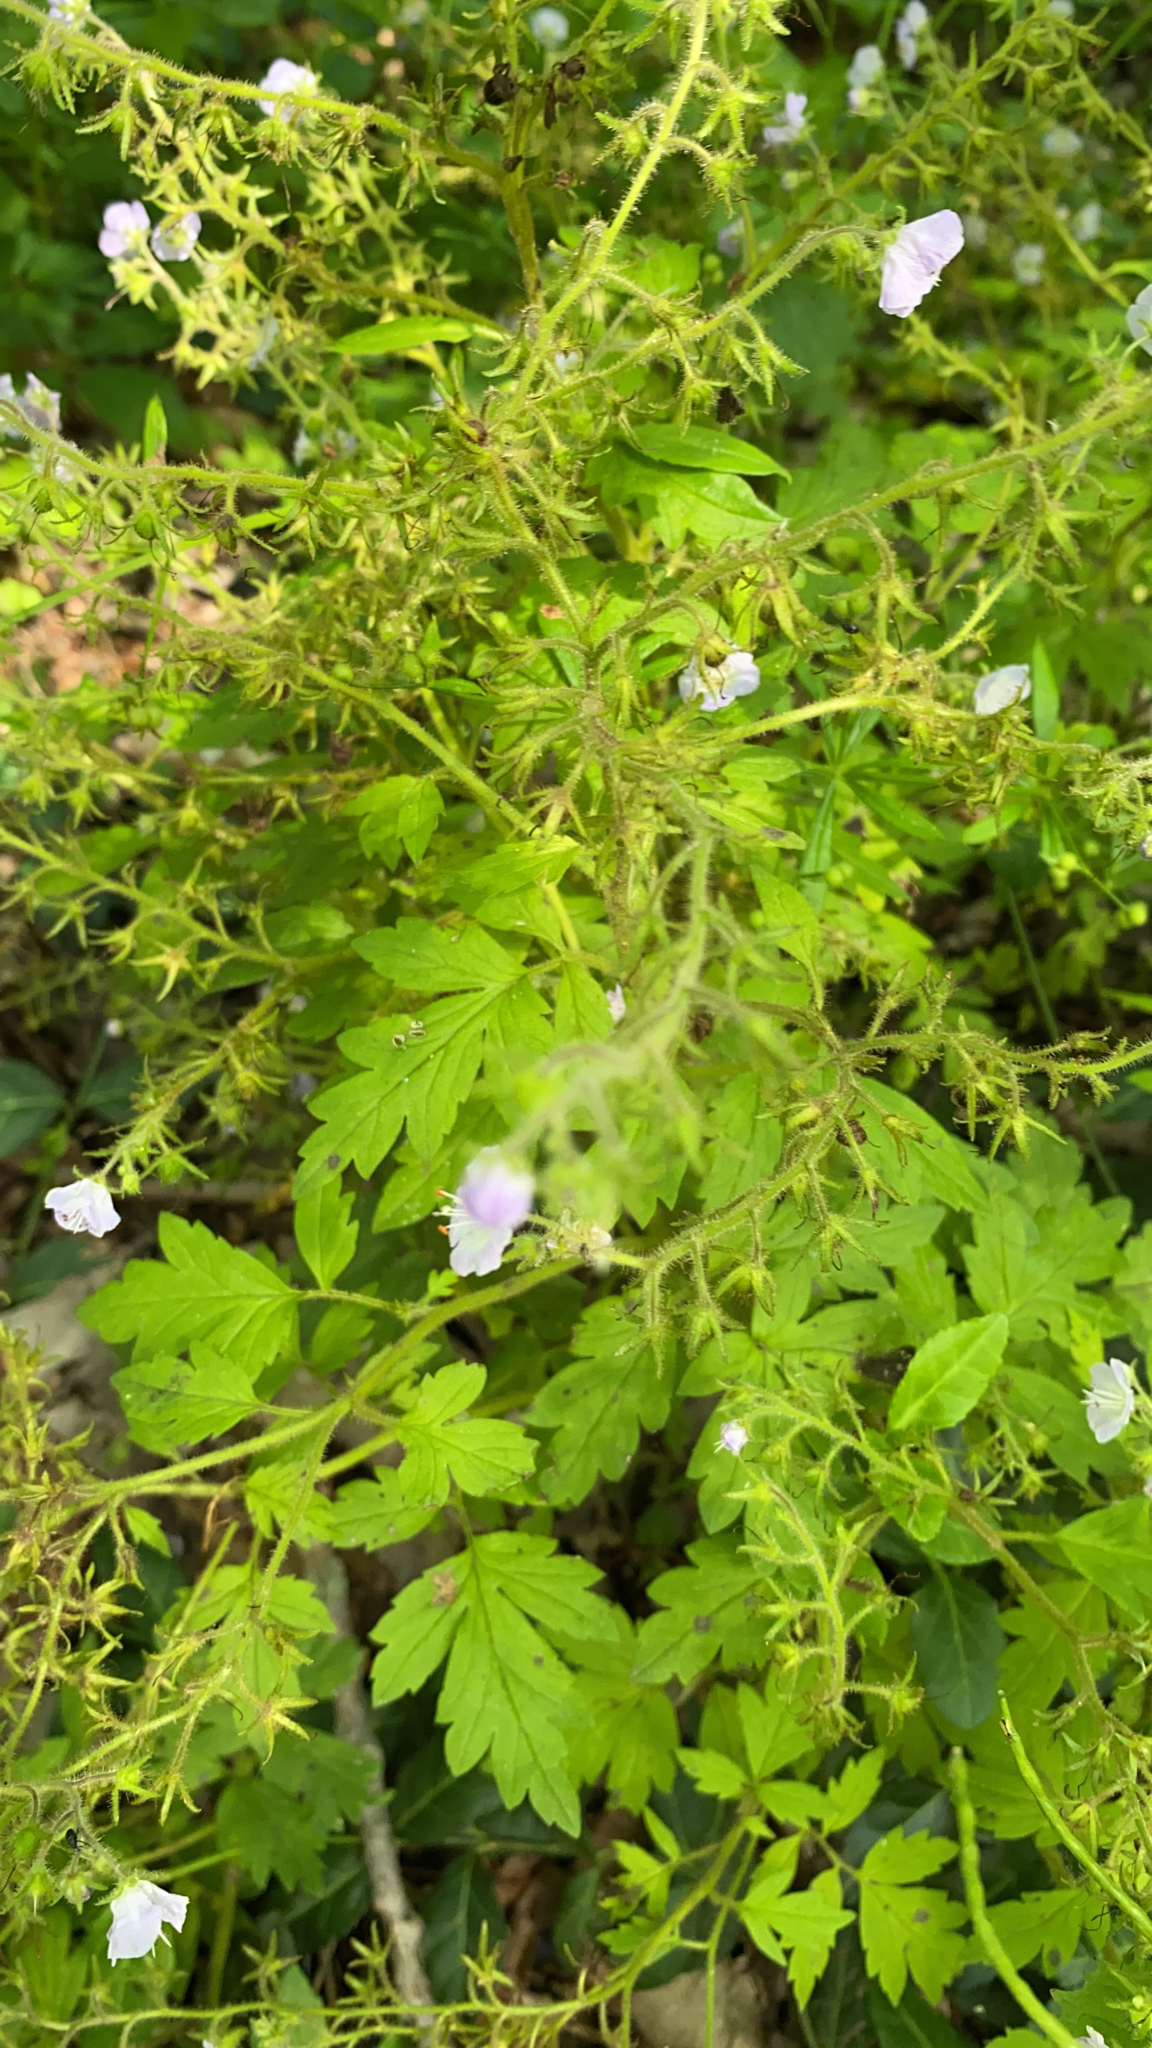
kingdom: Plantae
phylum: Tracheophyta
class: Magnoliopsida
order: Boraginales
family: Hydrophyllaceae
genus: Phacelia
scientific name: Phacelia bipinnatifida
